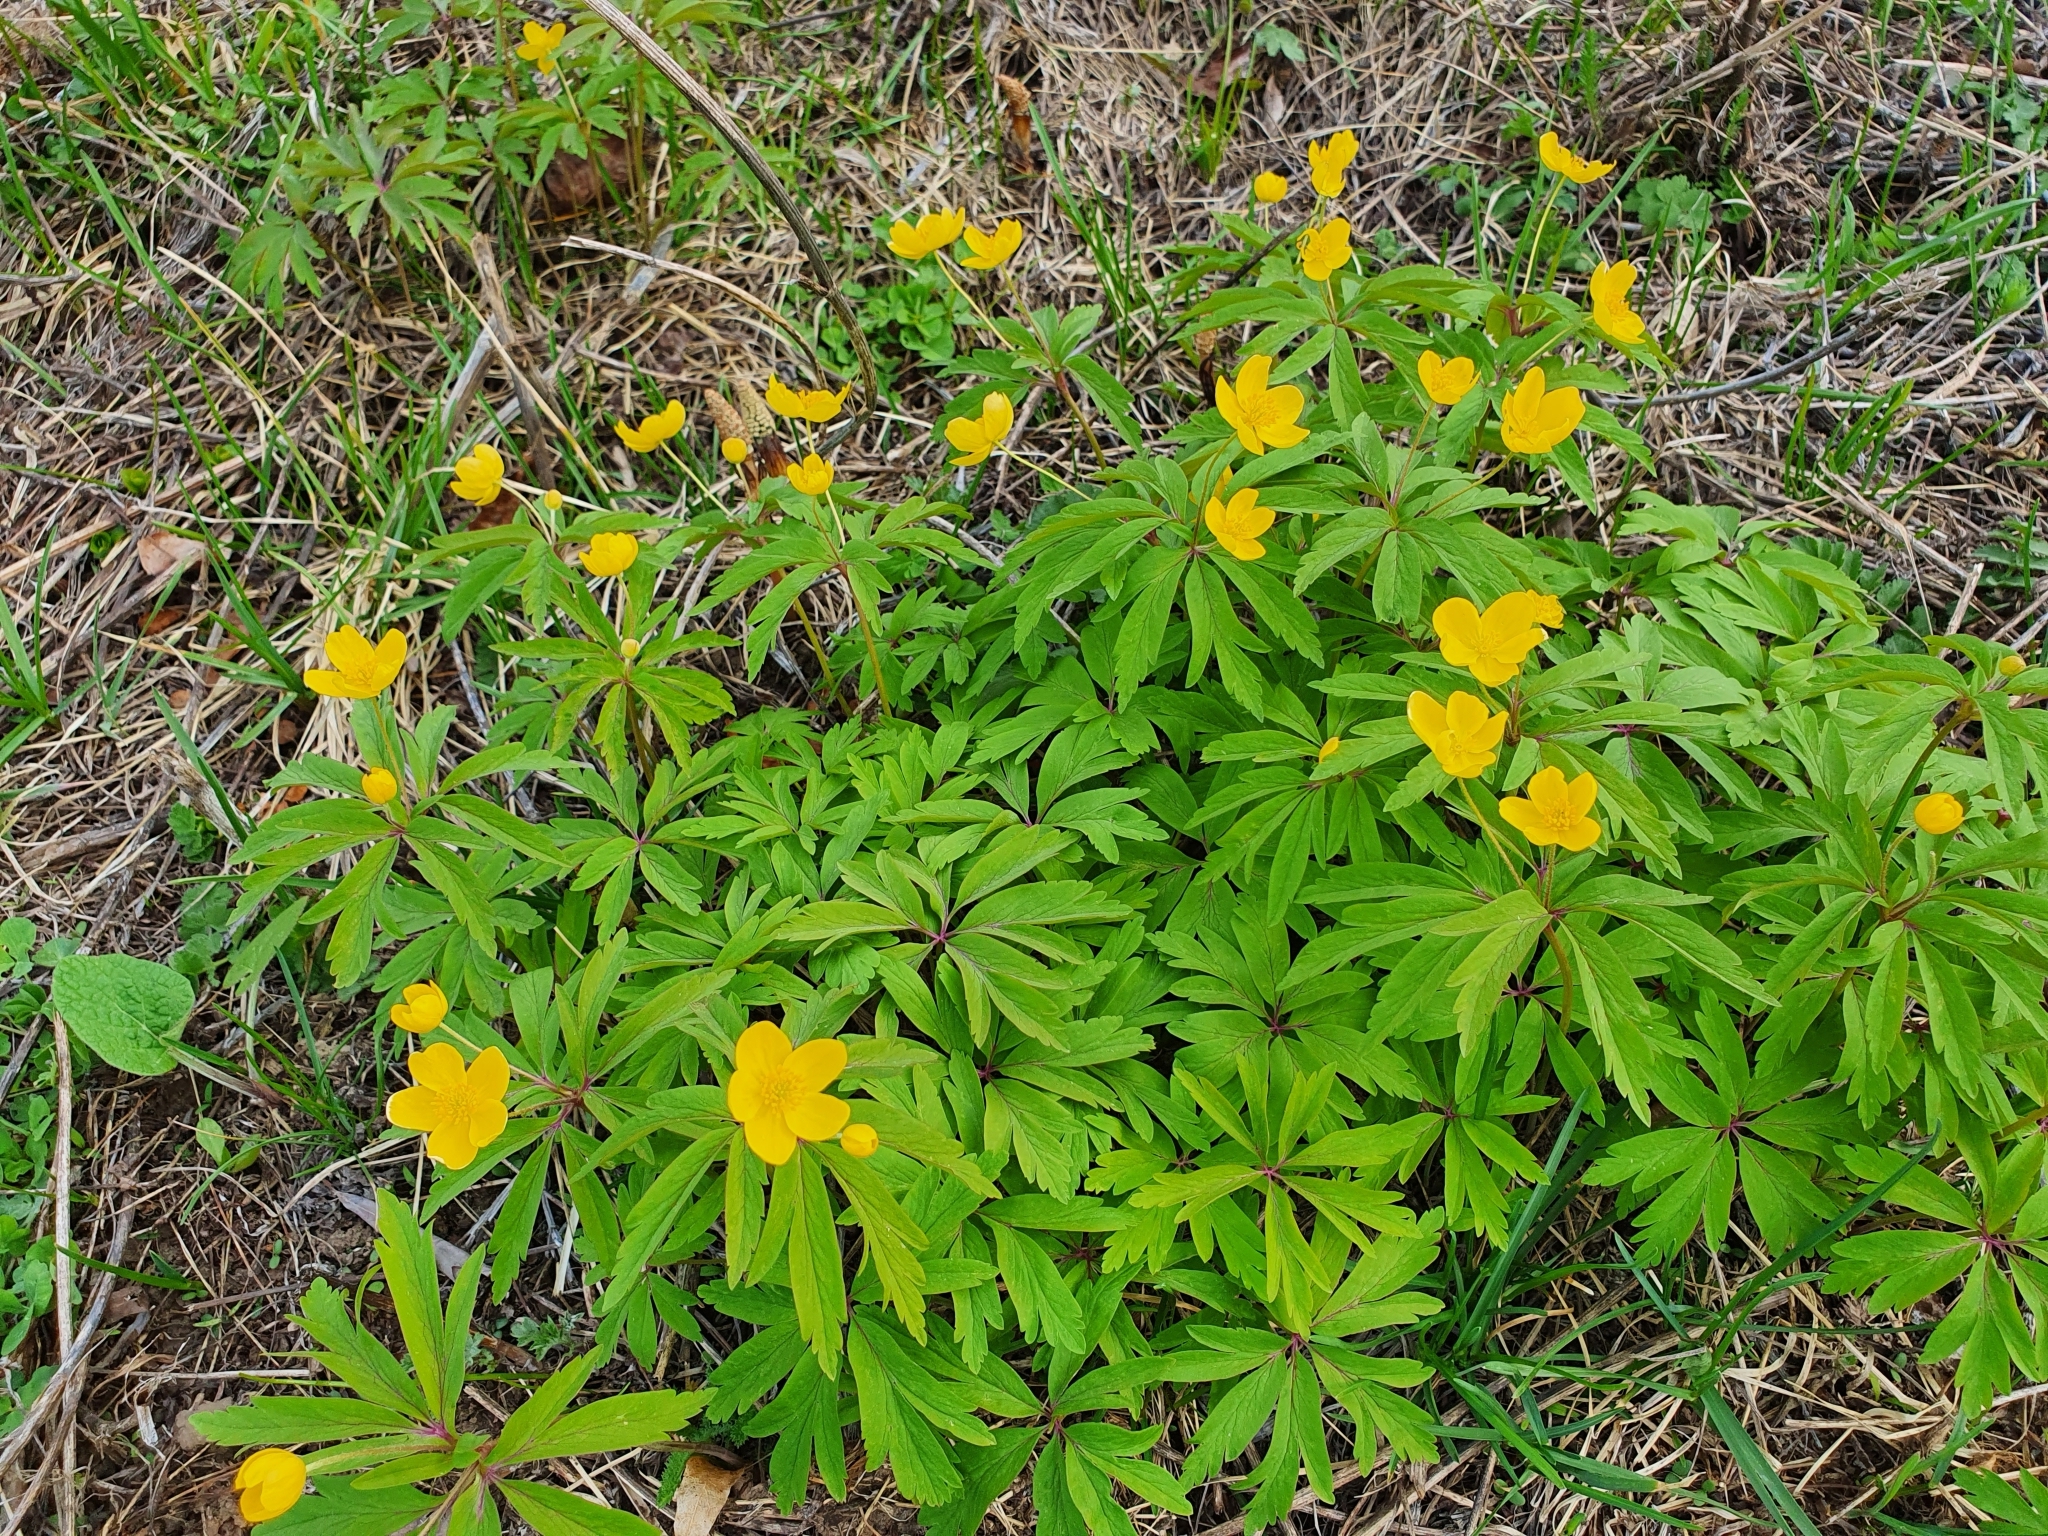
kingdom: Plantae
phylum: Tracheophyta
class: Magnoliopsida
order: Ranunculales
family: Ranunculaceae
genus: Anemone
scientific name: Anemone ranunculoides
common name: Yellow anemone
